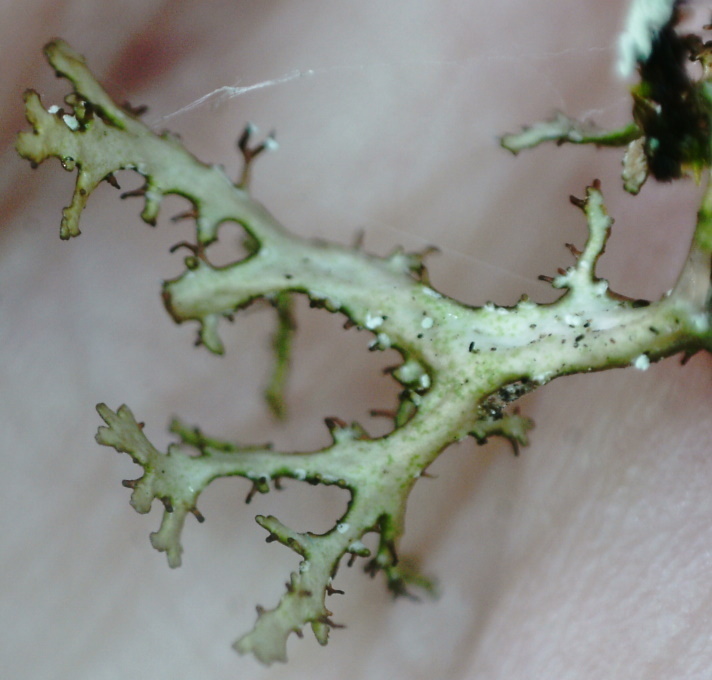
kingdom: Fungi
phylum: Ascomycota
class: Lecanoromycetes
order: Lecanorales
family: Parmeliaceae
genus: Cetraria
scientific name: Cetraria odontella
